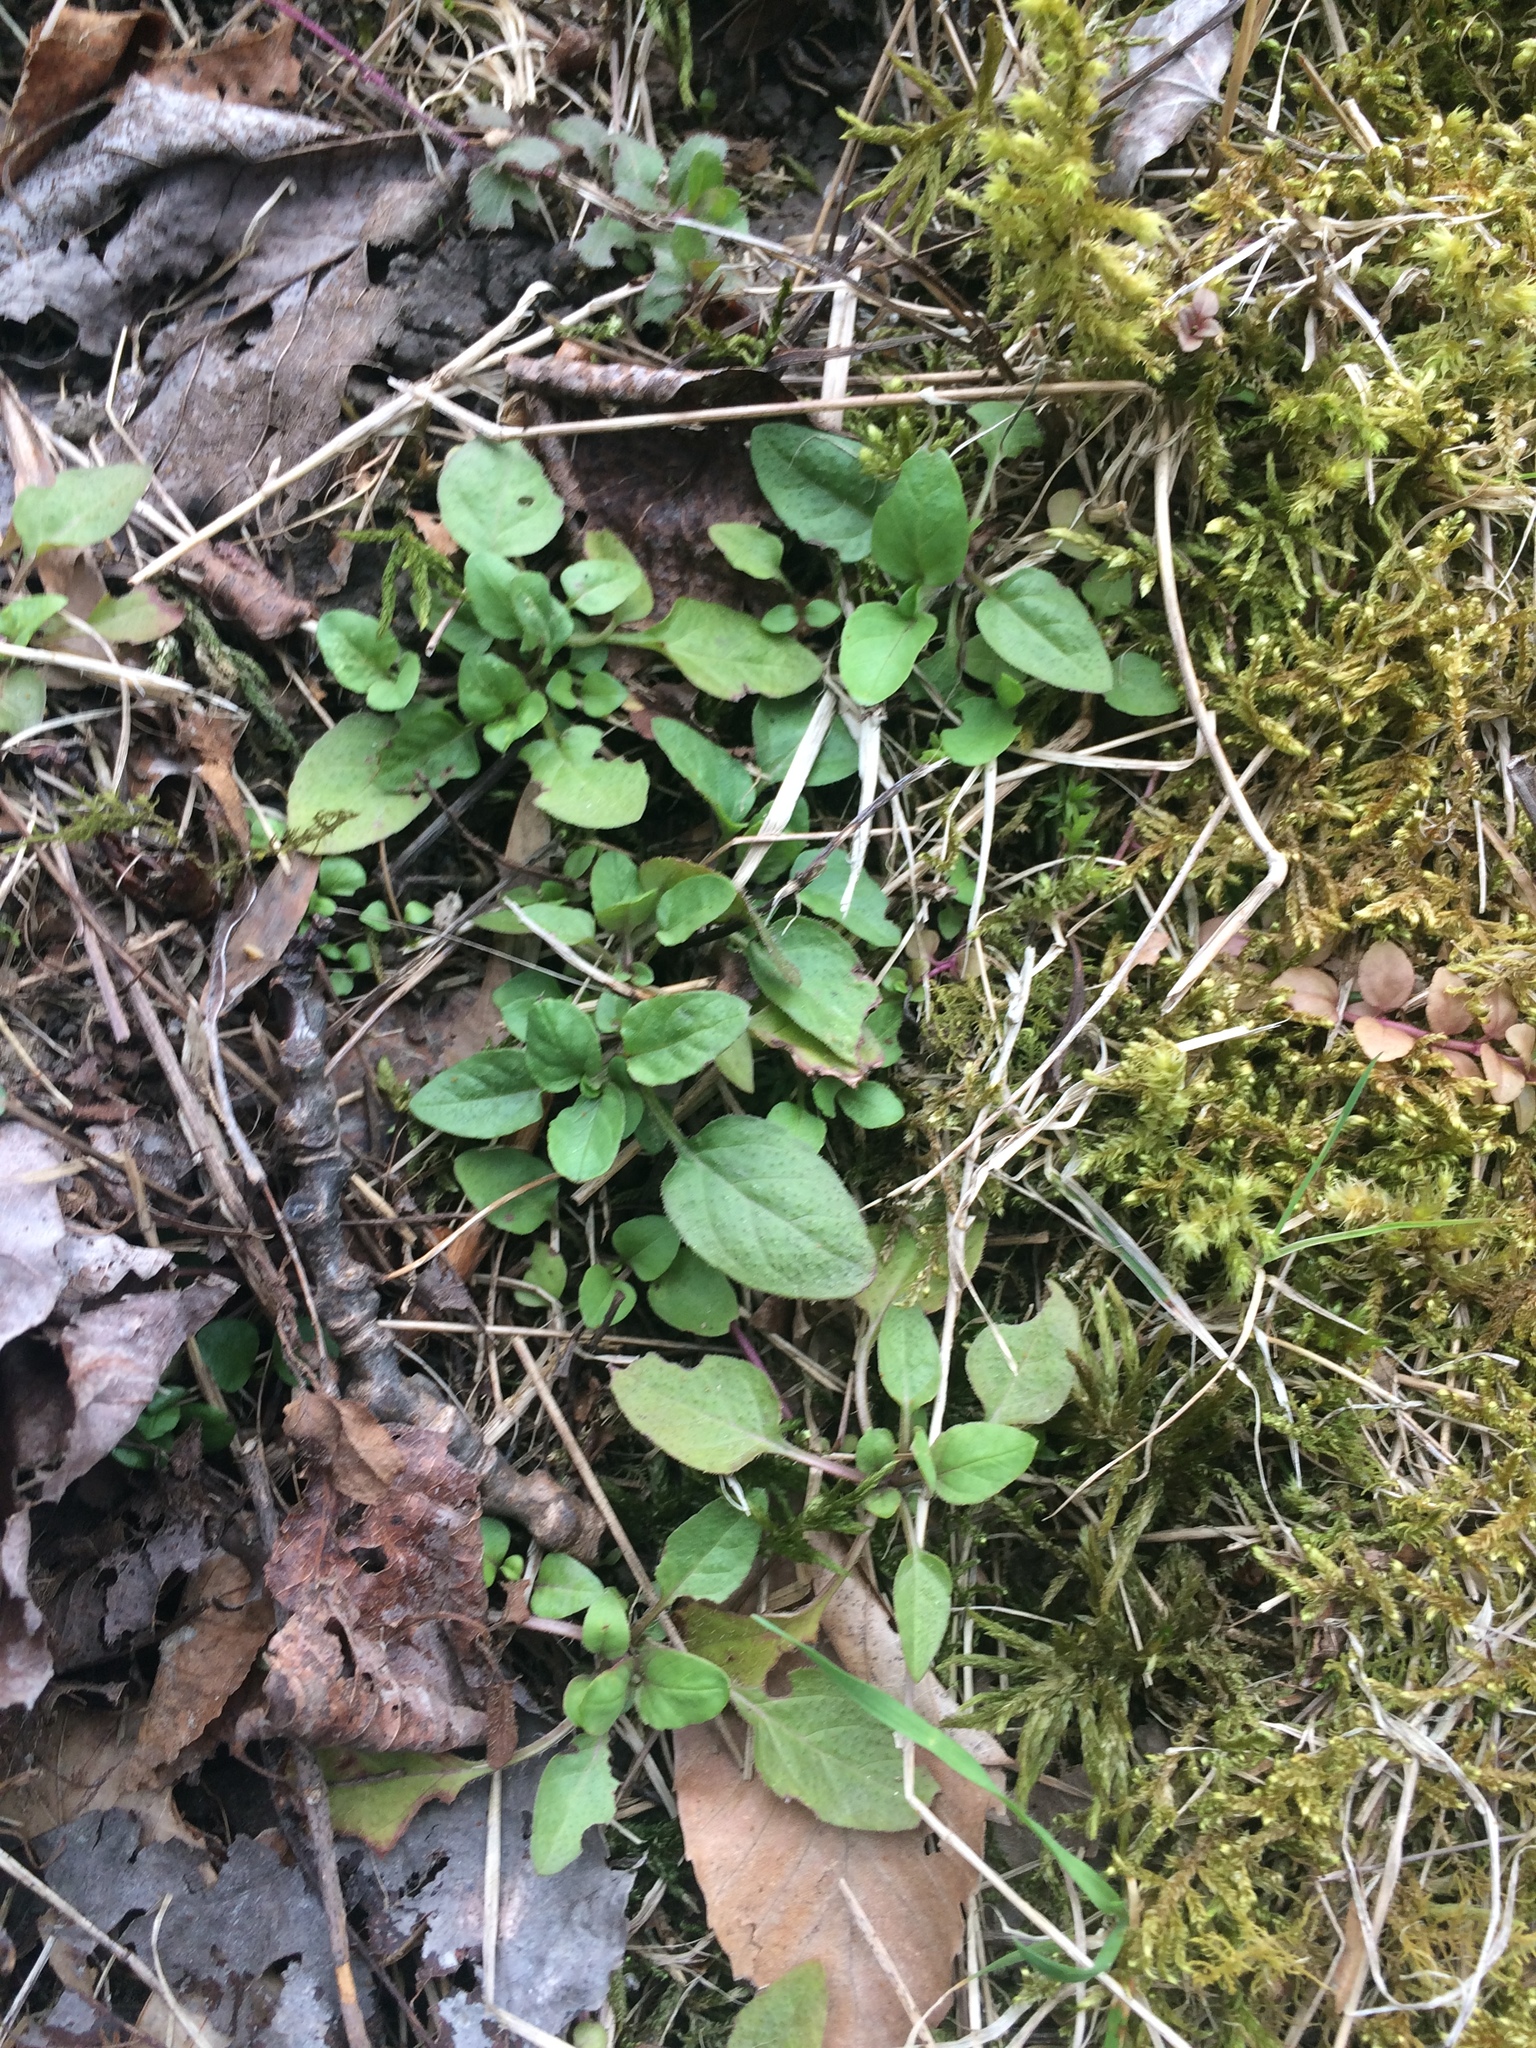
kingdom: Plantae
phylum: Tracheophyta
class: Magnoliopsida
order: Lamiales
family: Lamiaceae
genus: Prunella
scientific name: Prunella vulgaris
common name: Heal-all
